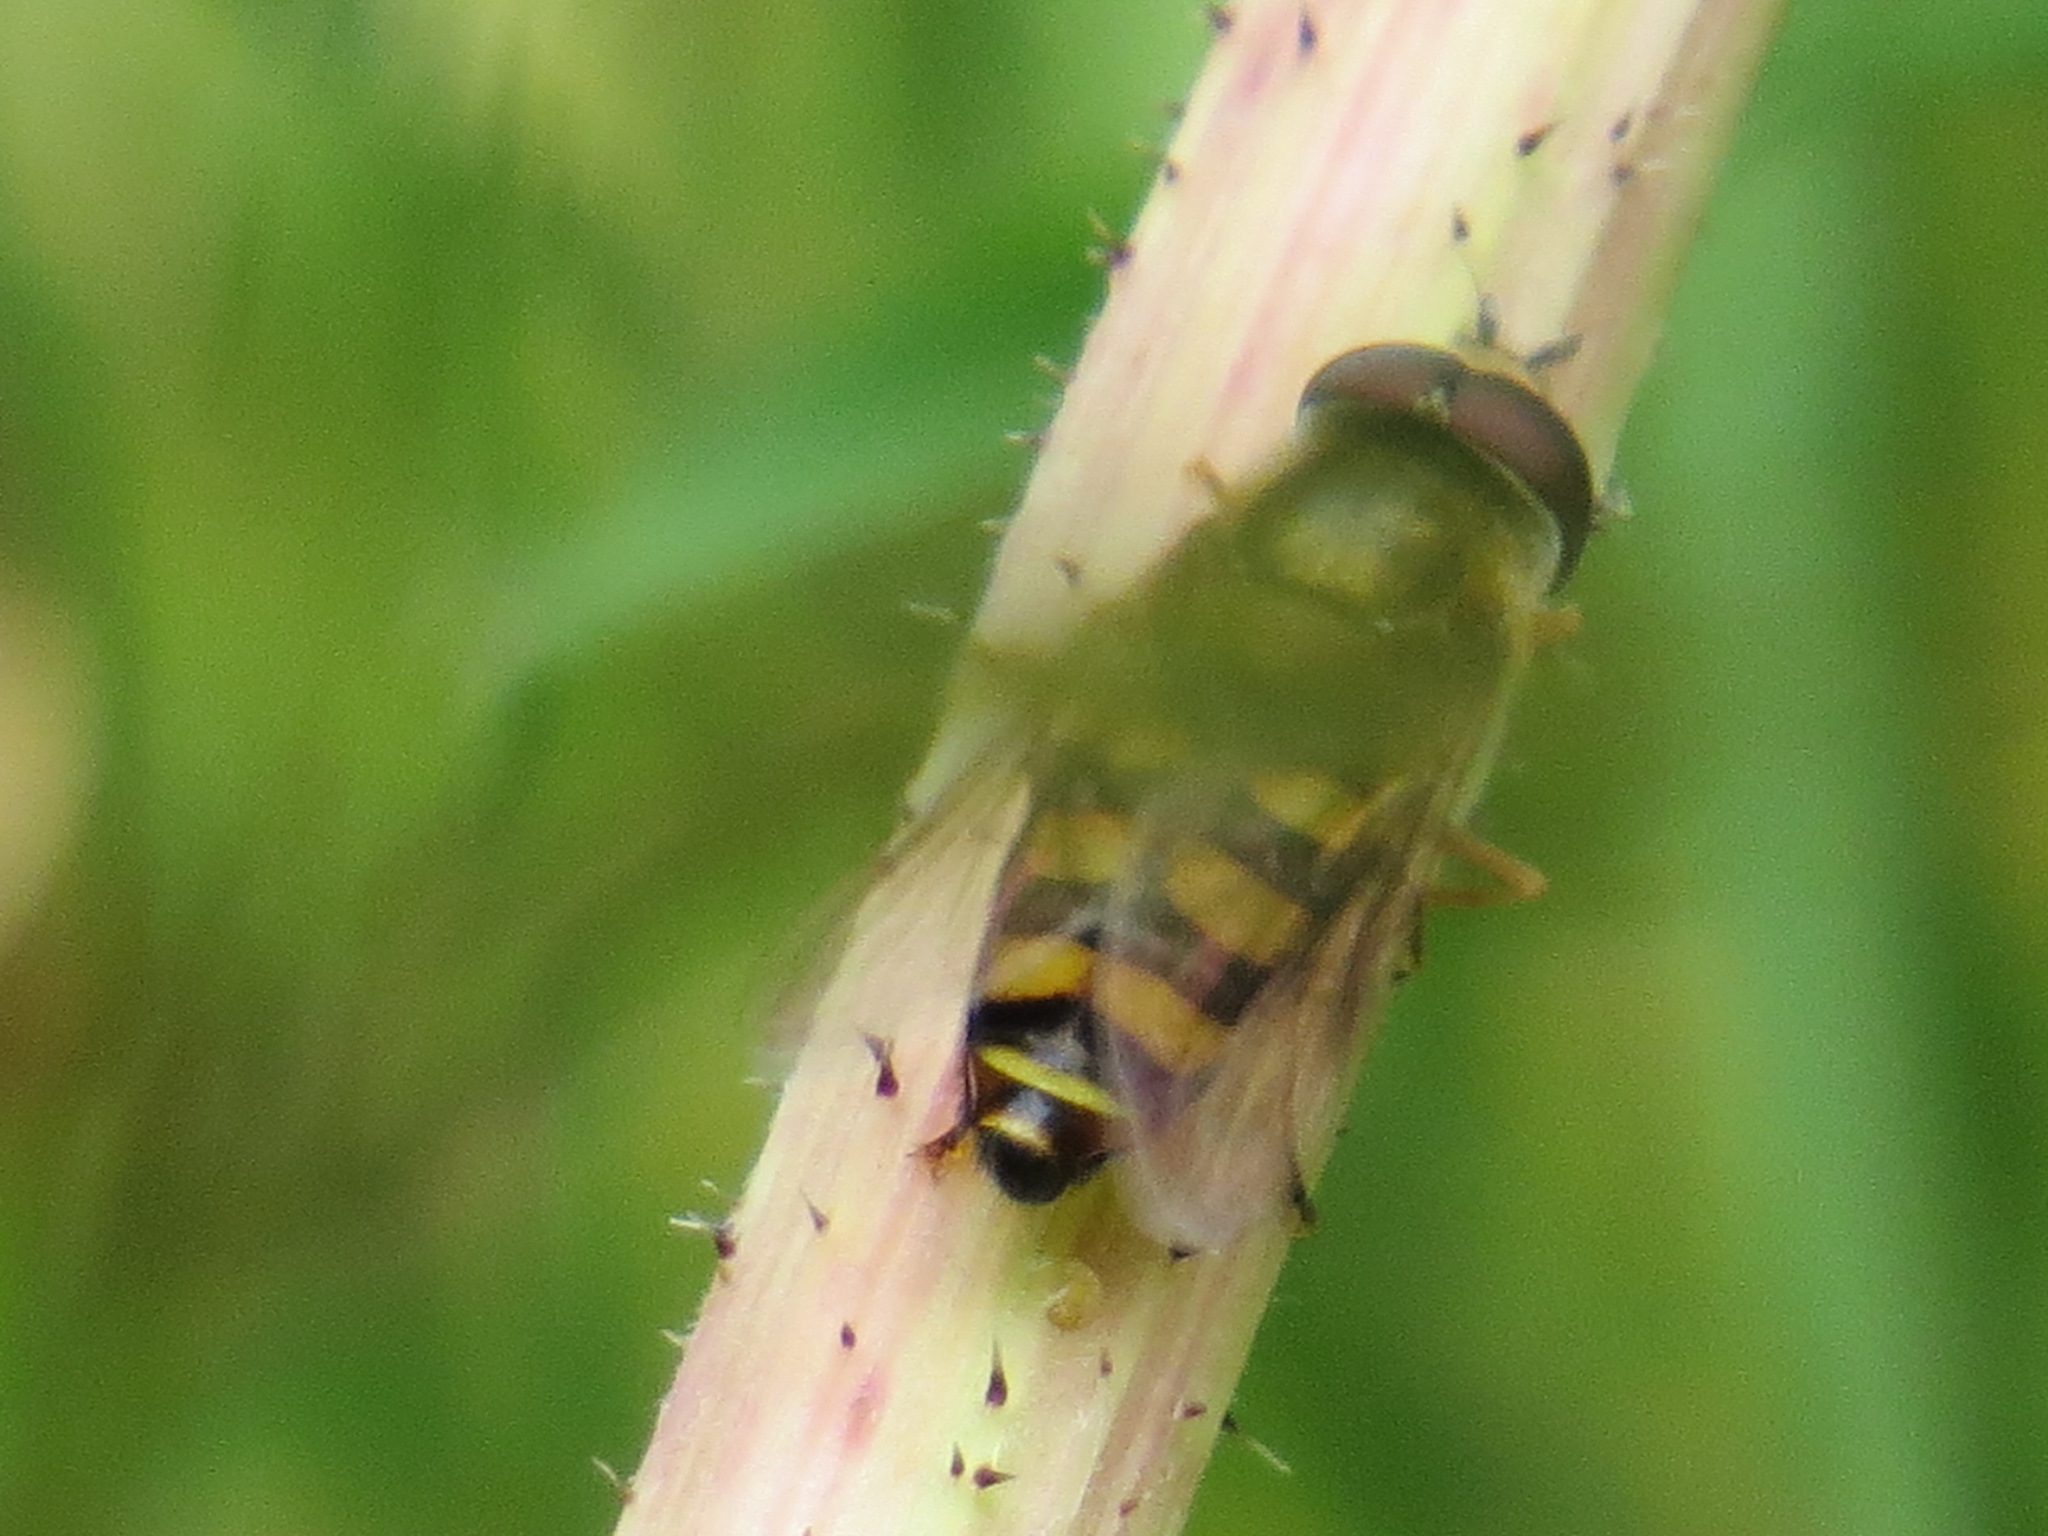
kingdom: Animalia
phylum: Arthropoda
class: Insecta
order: Diptera
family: Syrphidae
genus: Eupeodes
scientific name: Eupeodes fumipennis
